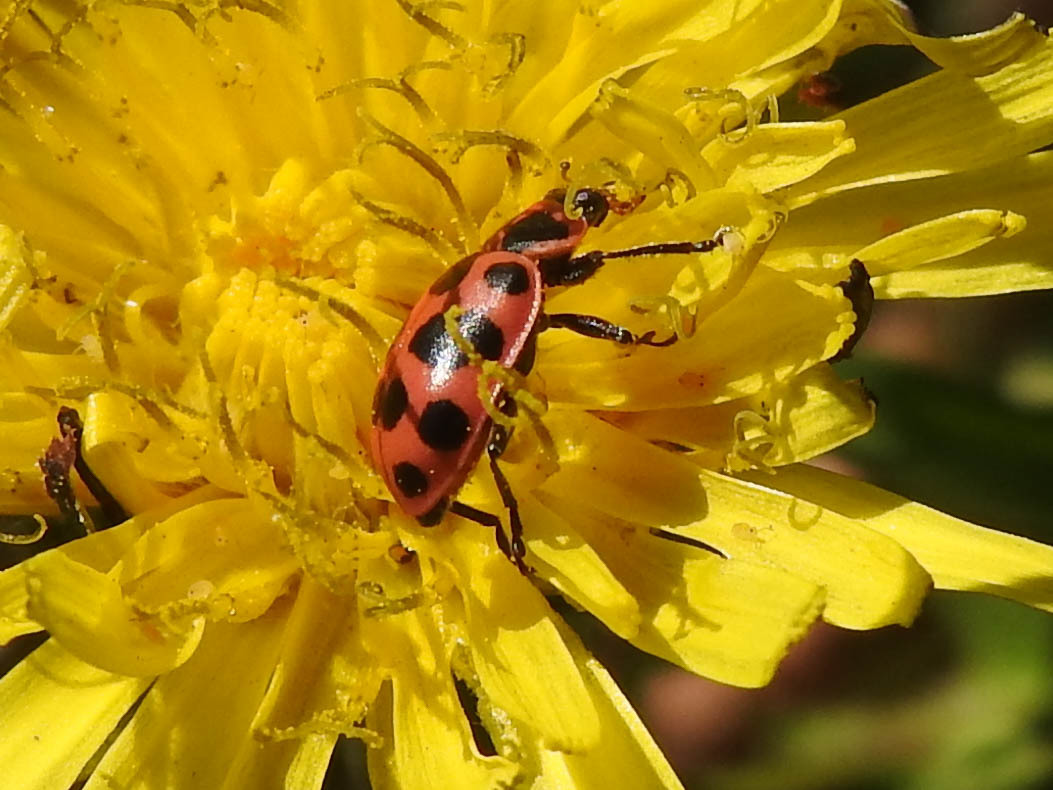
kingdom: Animalia
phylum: Arthropoda
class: Insecta
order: Coleoptera
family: Coccinellidae
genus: Coleomegilla
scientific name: Coleomegilla maculata
